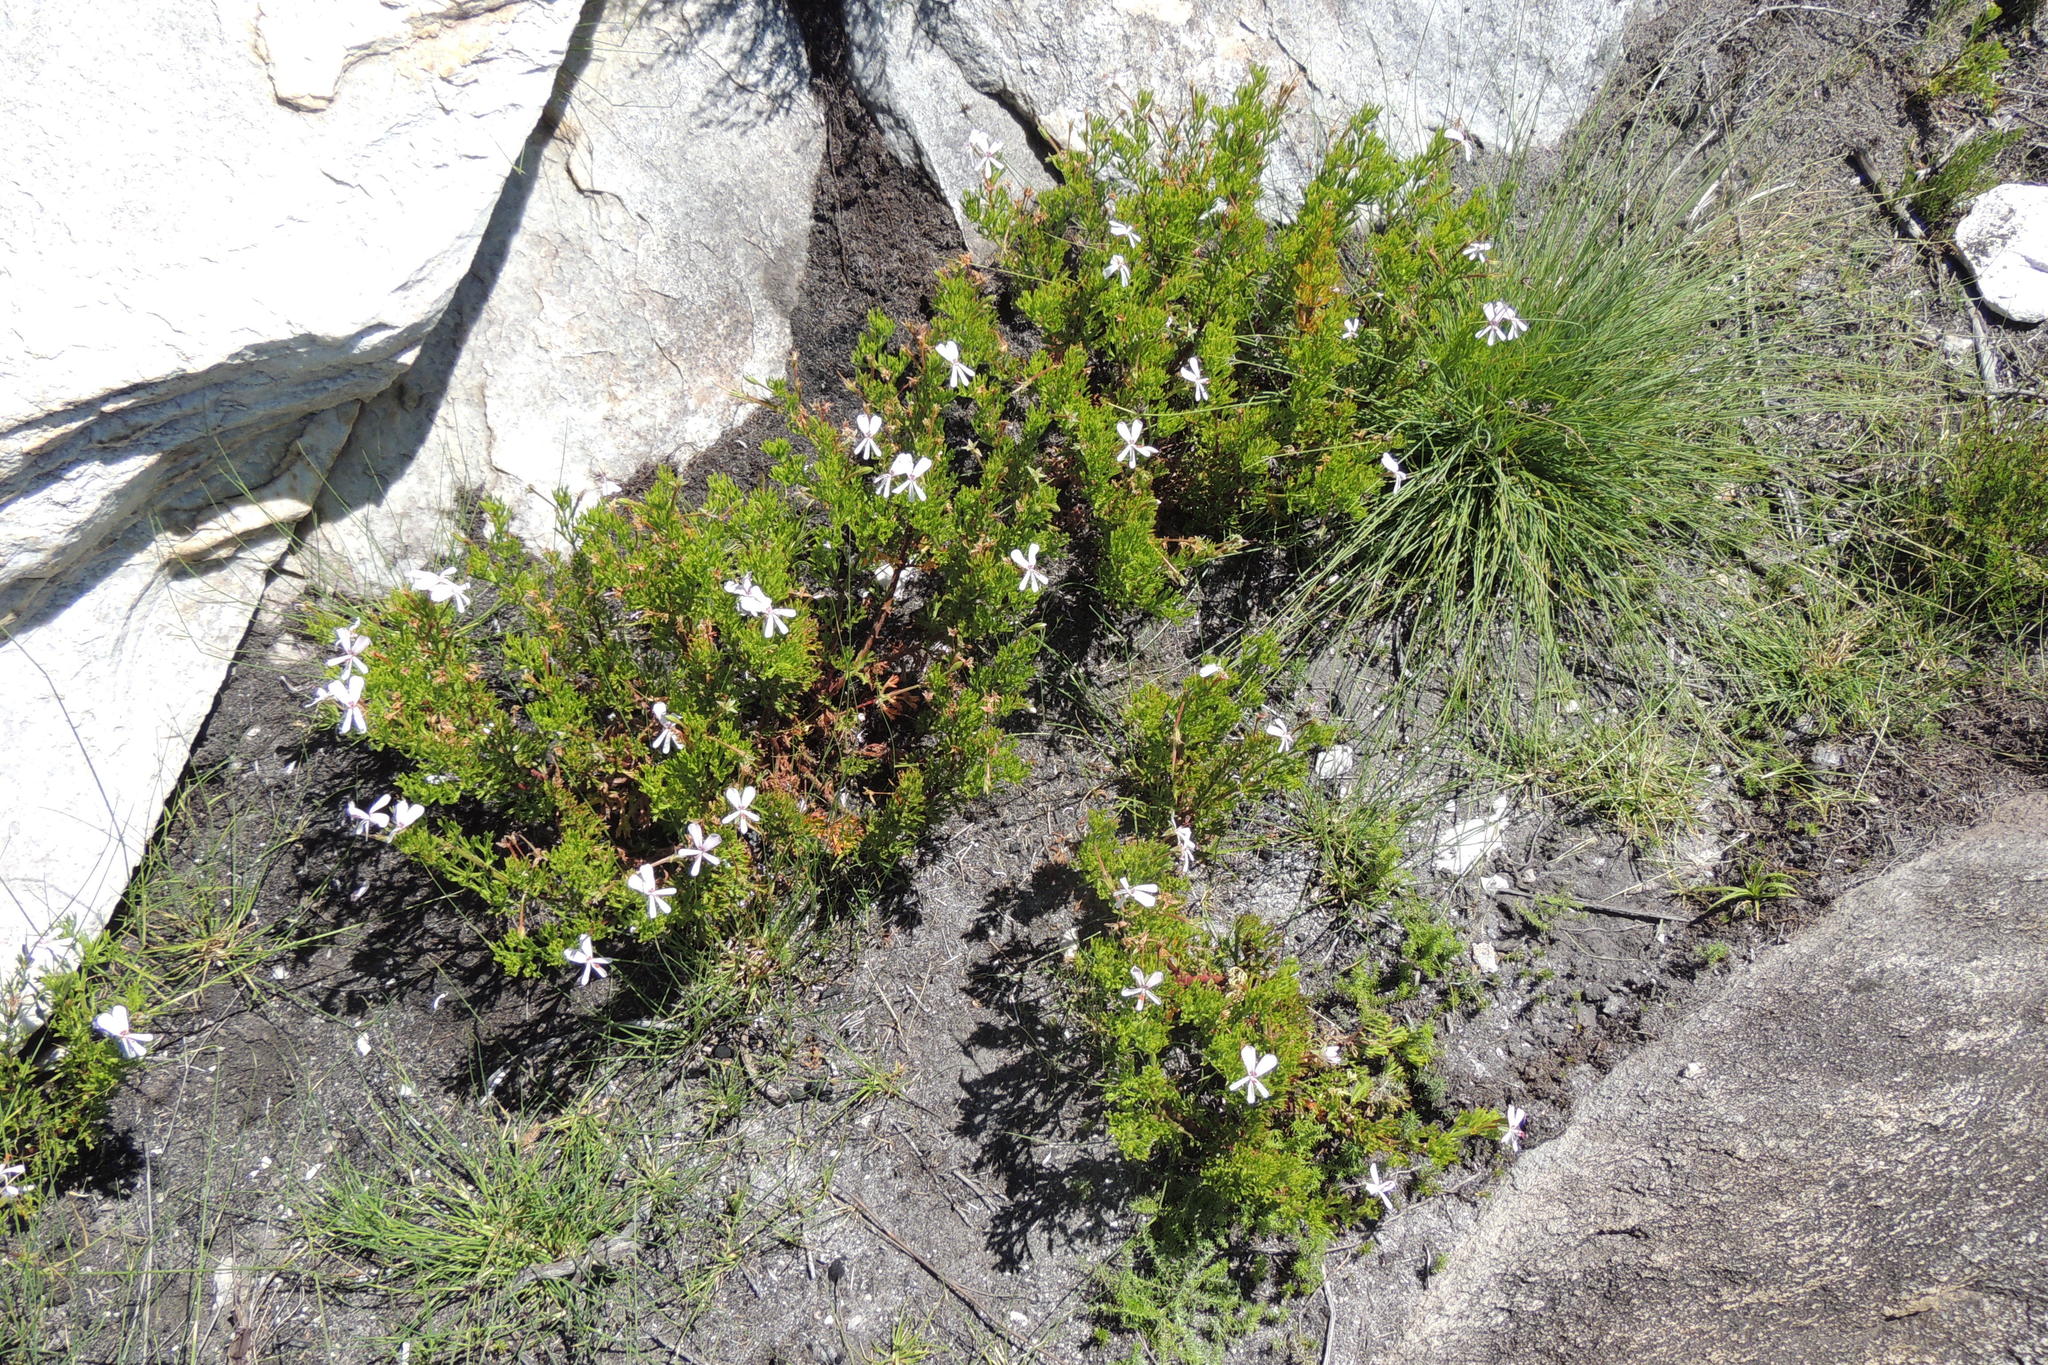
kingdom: Plantae
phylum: Tracheophyta
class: Magnoliopsida
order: Geraniales
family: Geraniaceae
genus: Pelargonium
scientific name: Pelargonium ternatum
